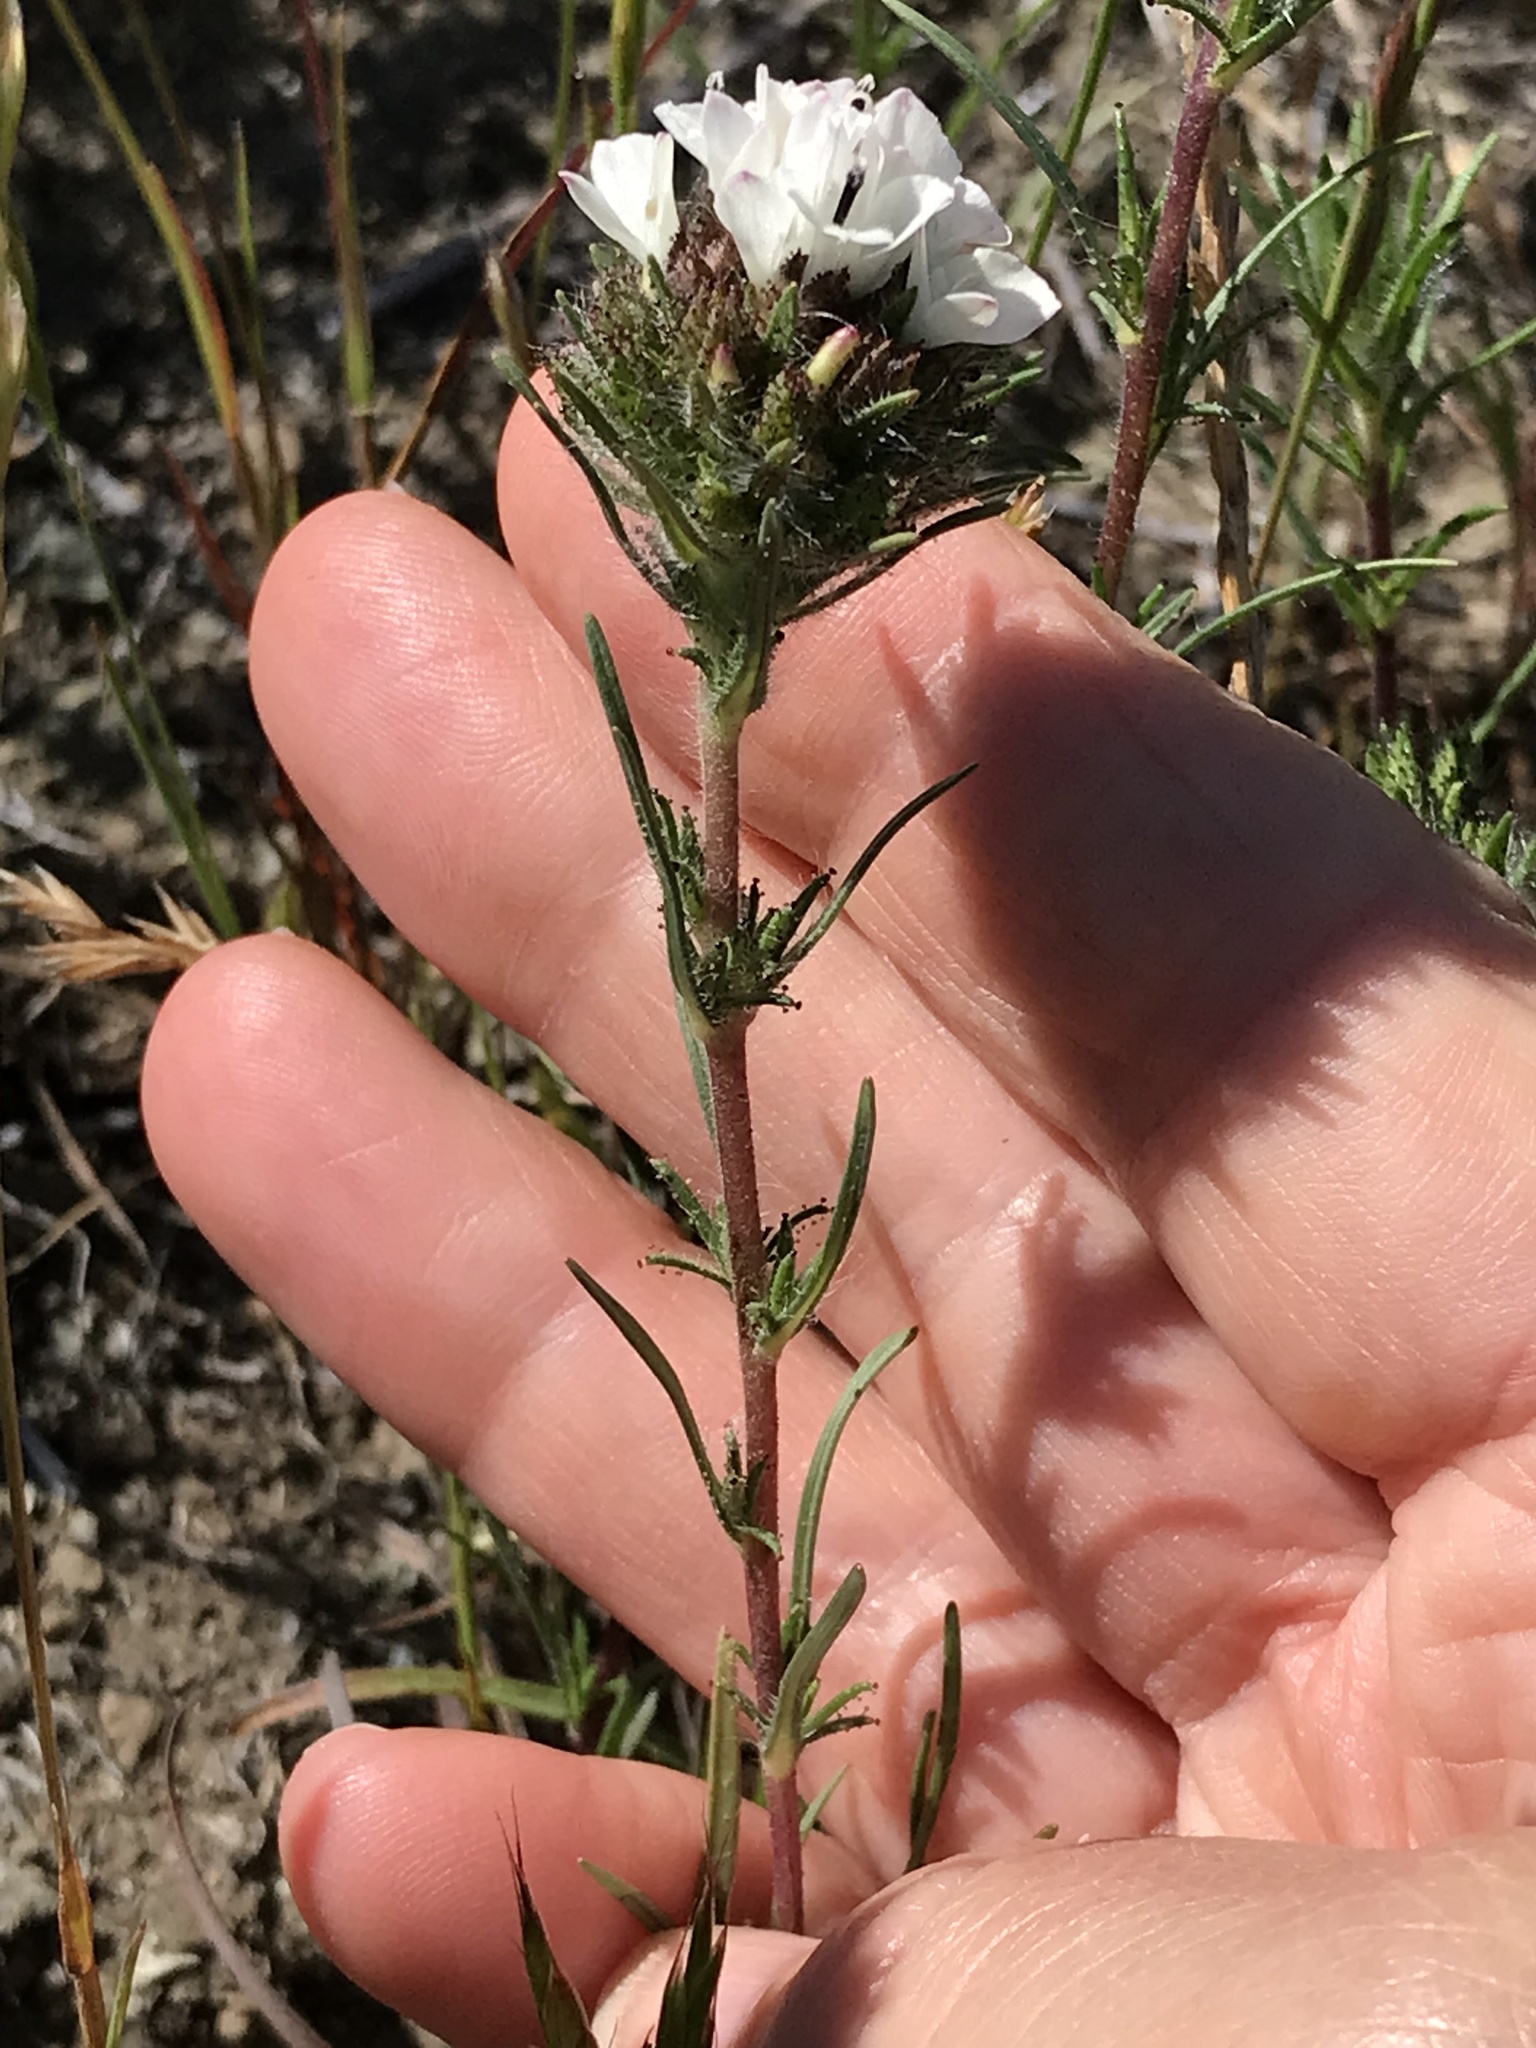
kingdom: Plantae
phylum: Tracheophyta
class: Magnoliopsida
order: Asterales
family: Asteraceae
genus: Calycadenia
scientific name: Calycadenia multiglandulosa
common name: Sticky calycadenia
